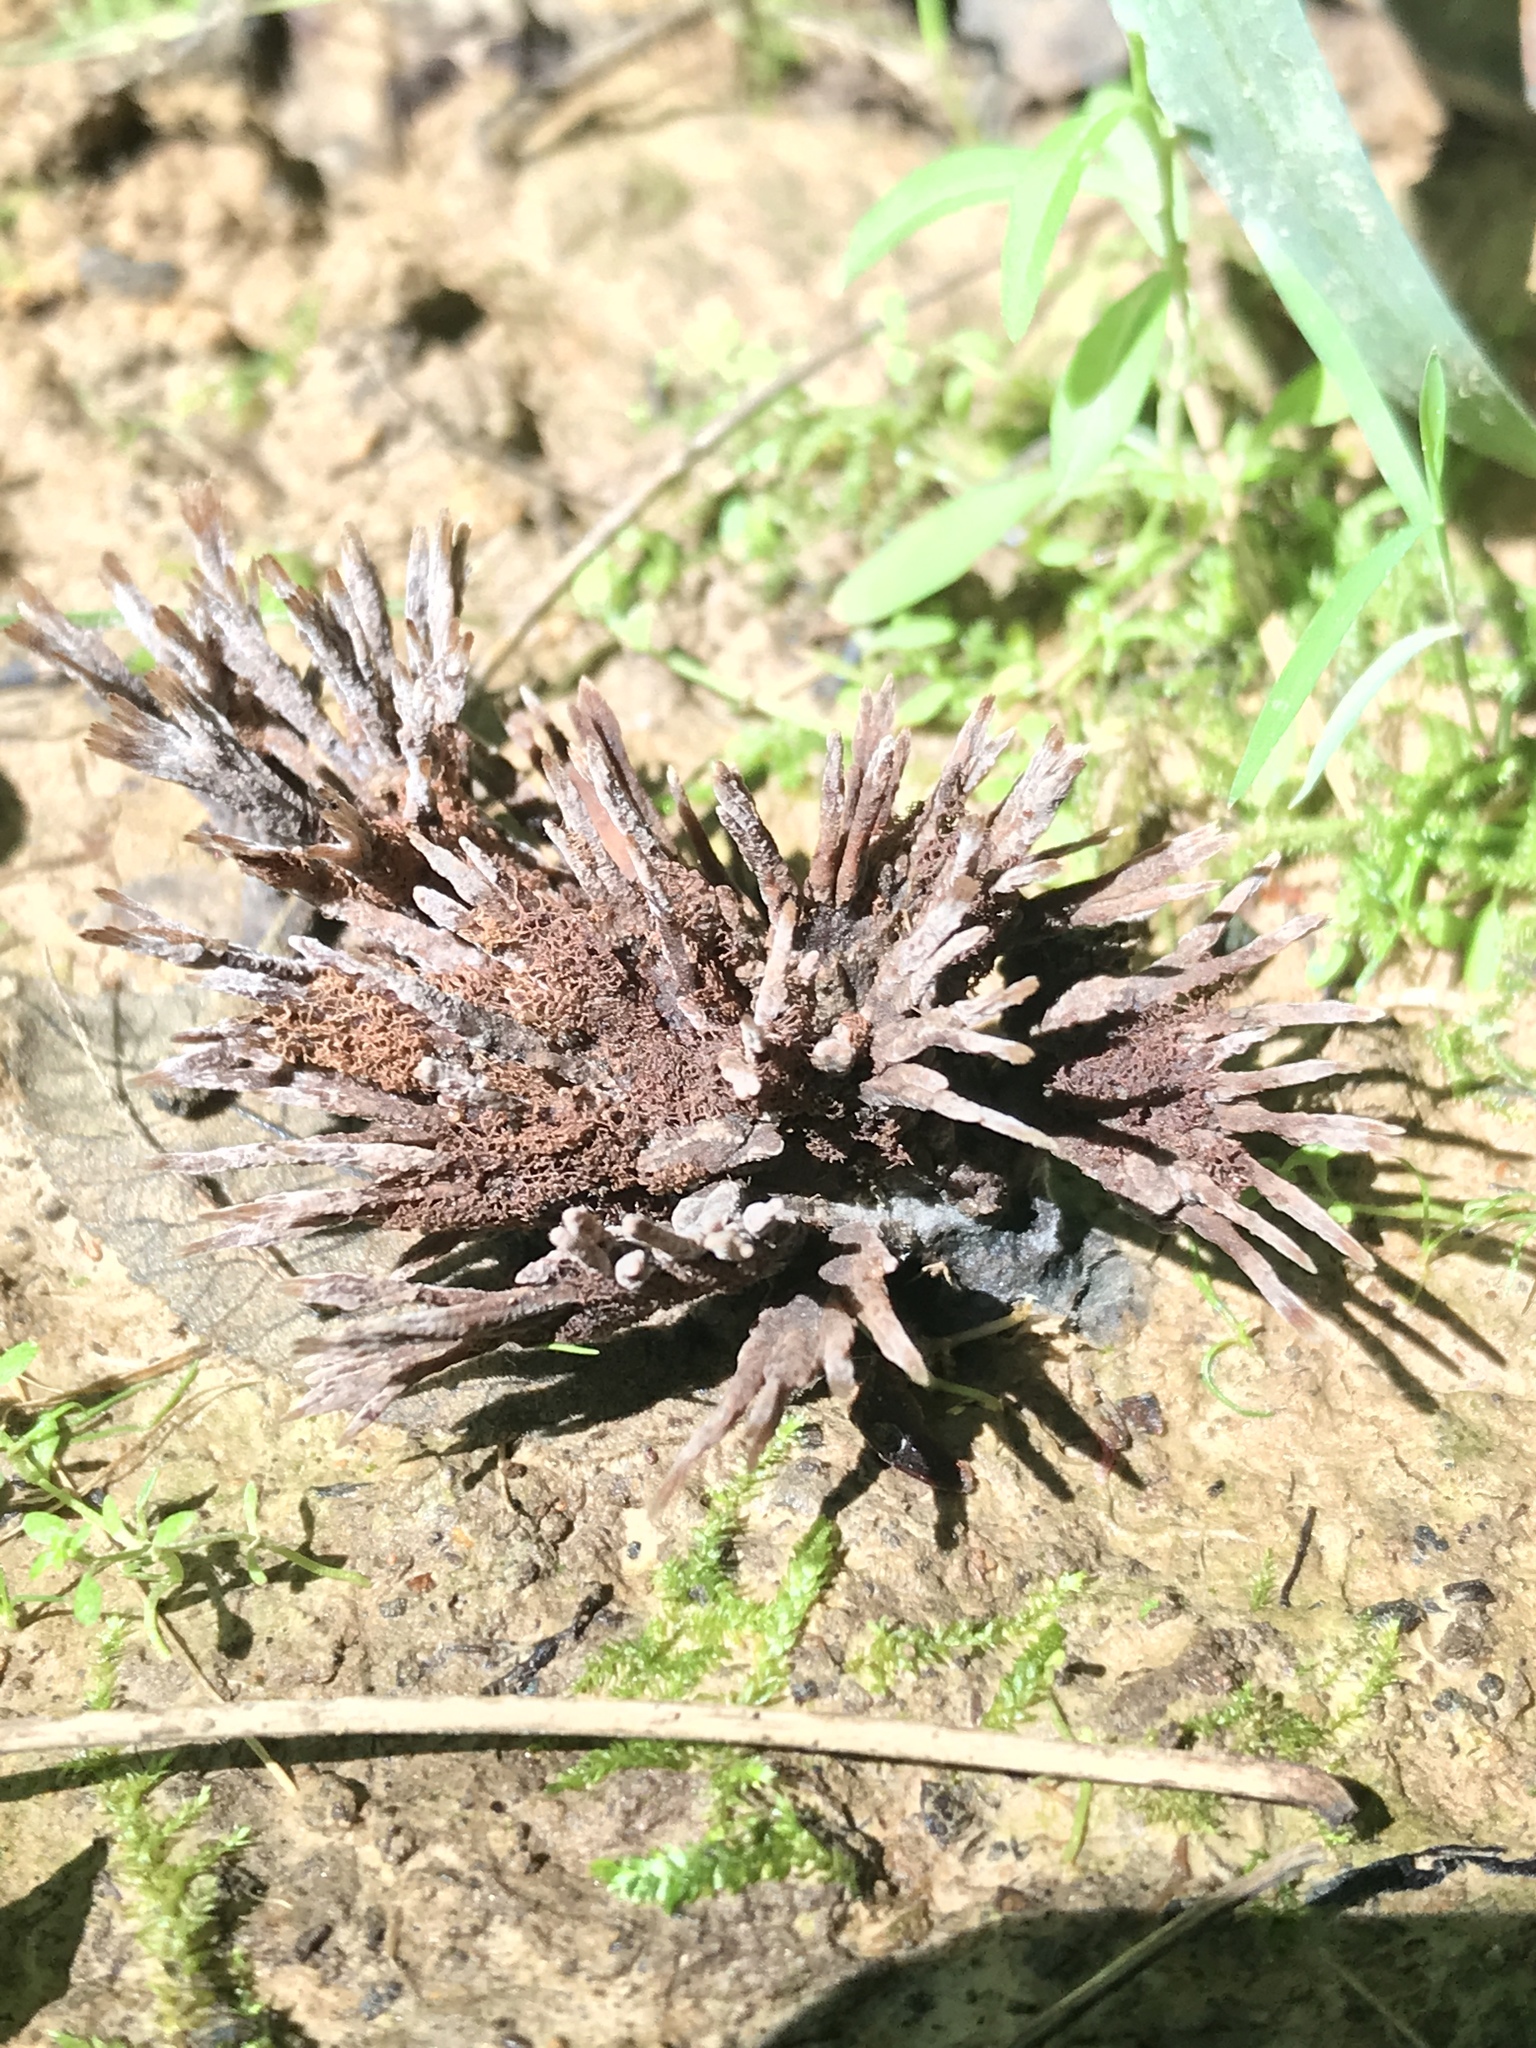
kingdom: Fungi
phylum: Basidiomycota
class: Agaricomycetes
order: Thelephorales
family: Thelephoraceae
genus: Thelephora
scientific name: Thelephora multipartita
